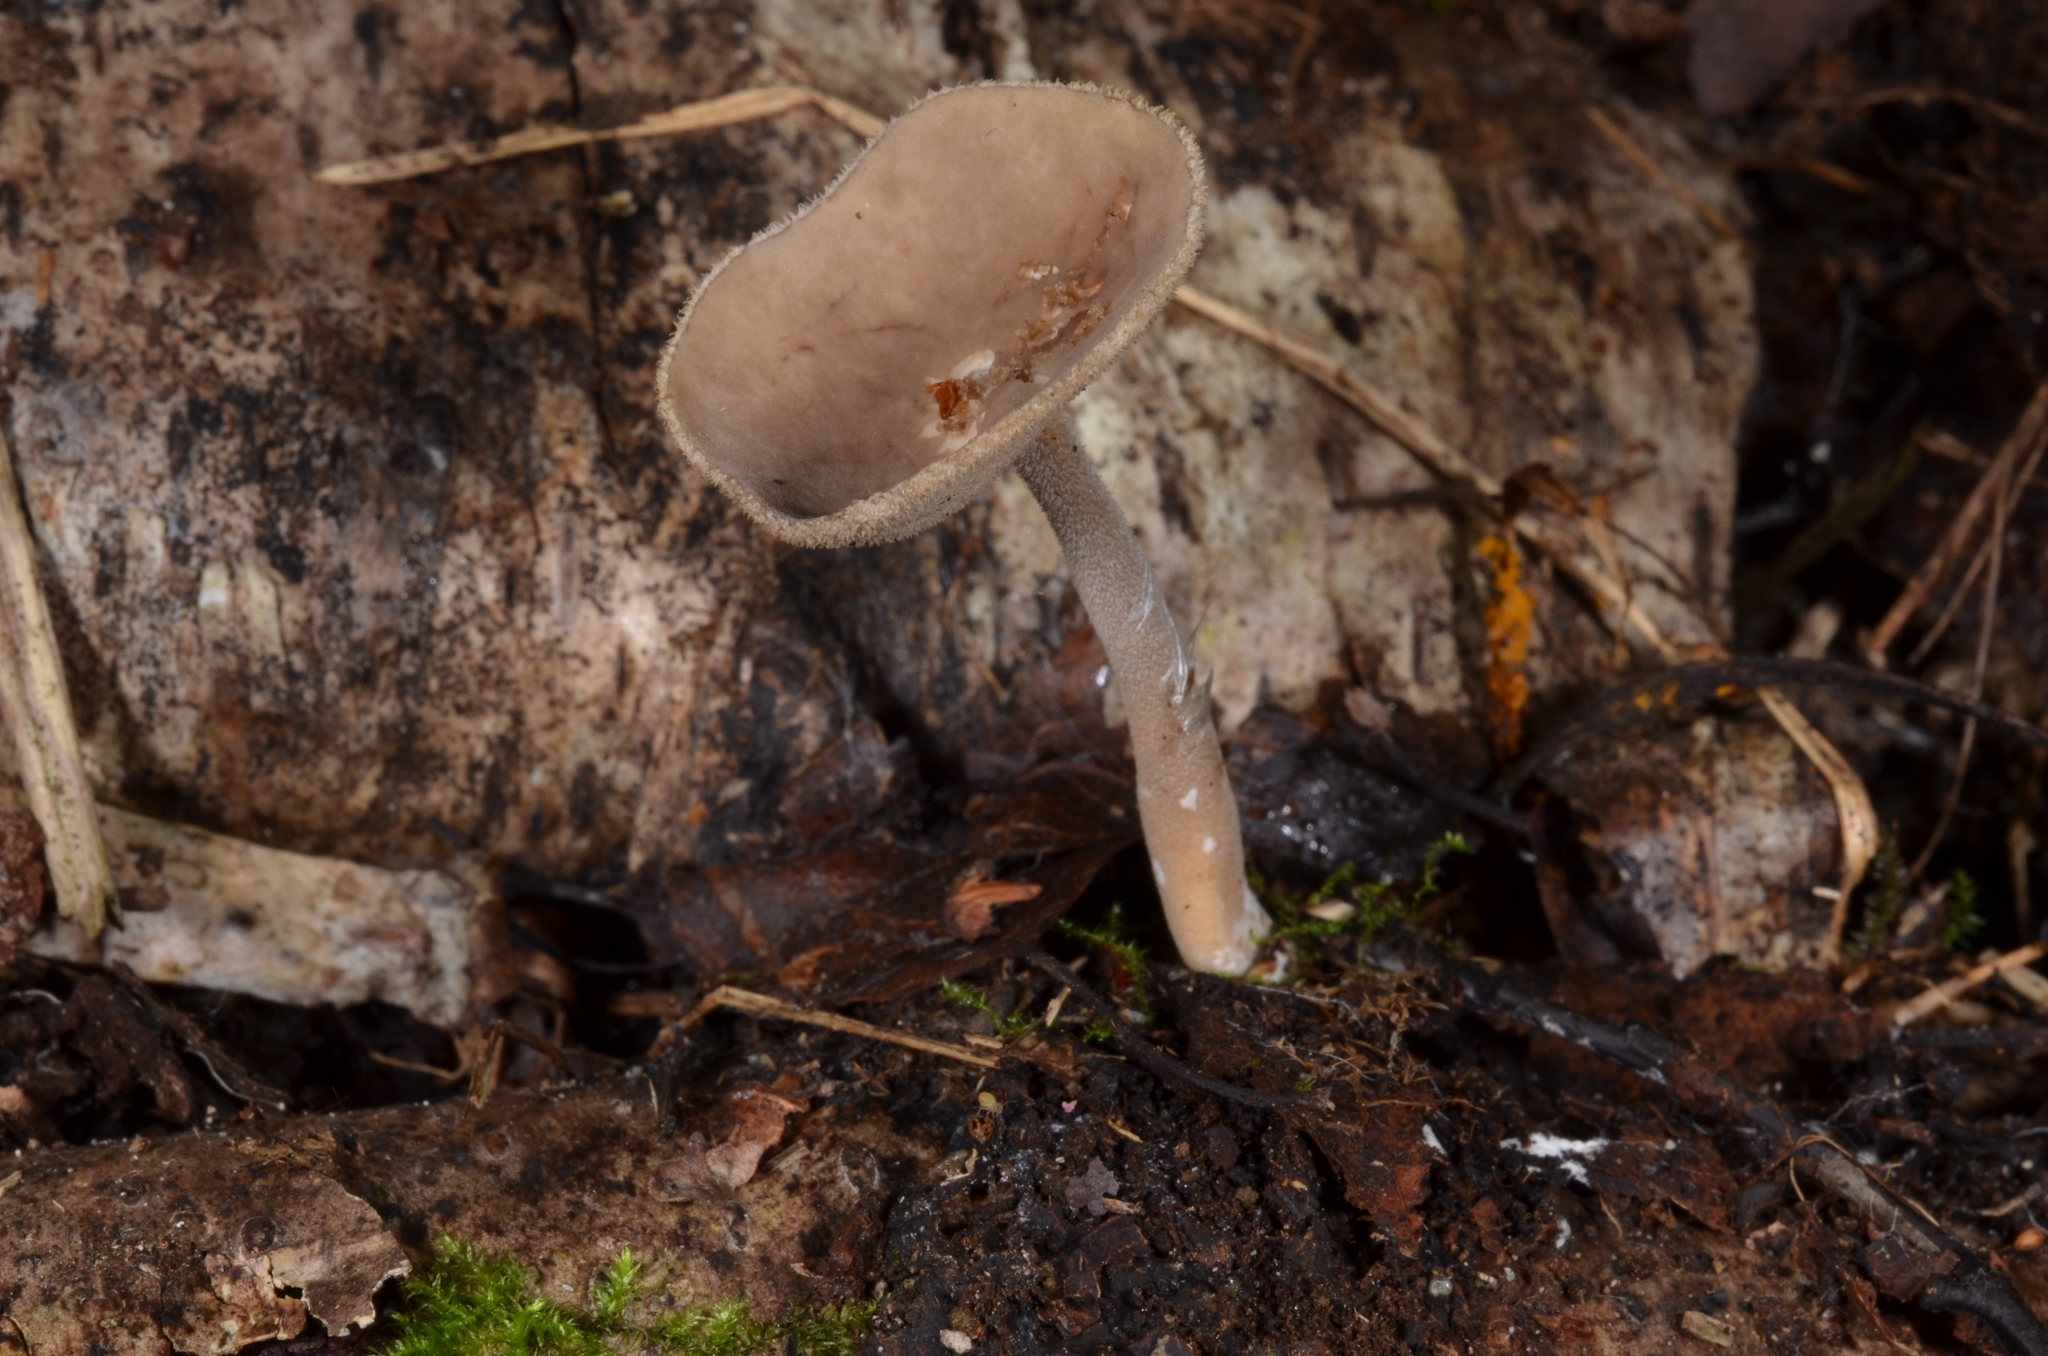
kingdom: Fungi
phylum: Ascomycota
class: Pezizomycetes
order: Pezizales
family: Helvellaceae
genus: Helvella
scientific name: Helvella macropus
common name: Felt saddle
